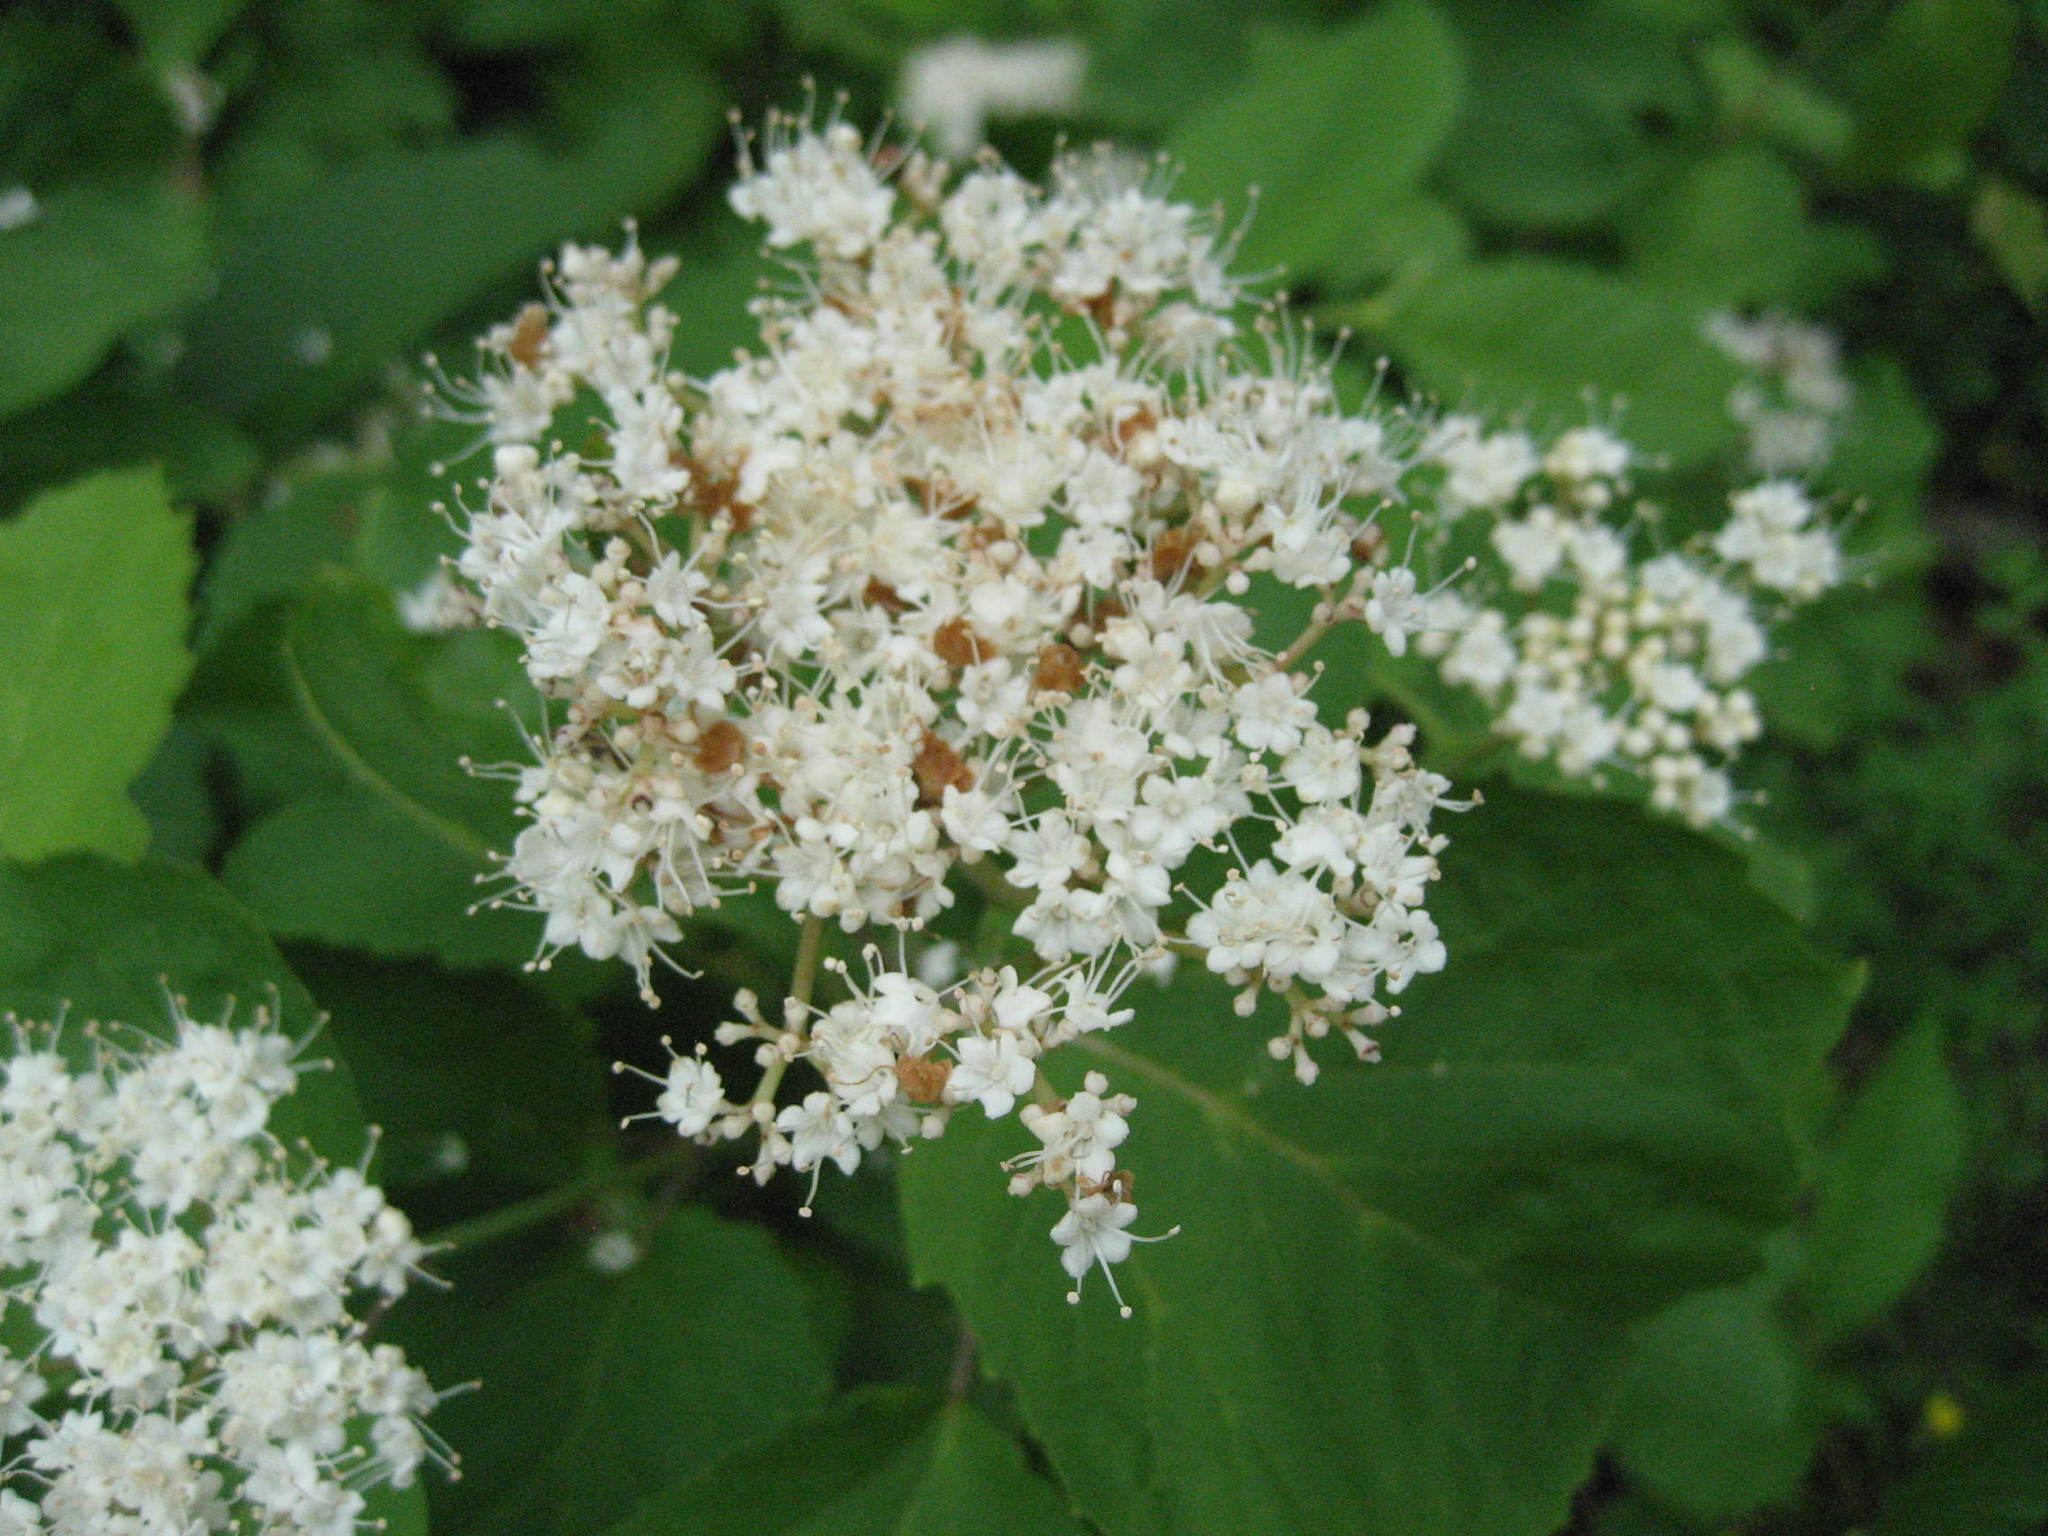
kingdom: Plantae
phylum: Tracheophyta
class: Magnoliopsida
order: Dipsacales
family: Viburnaceae
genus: Viburnum
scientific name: Viburnum acerifolium
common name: Dockmackie
